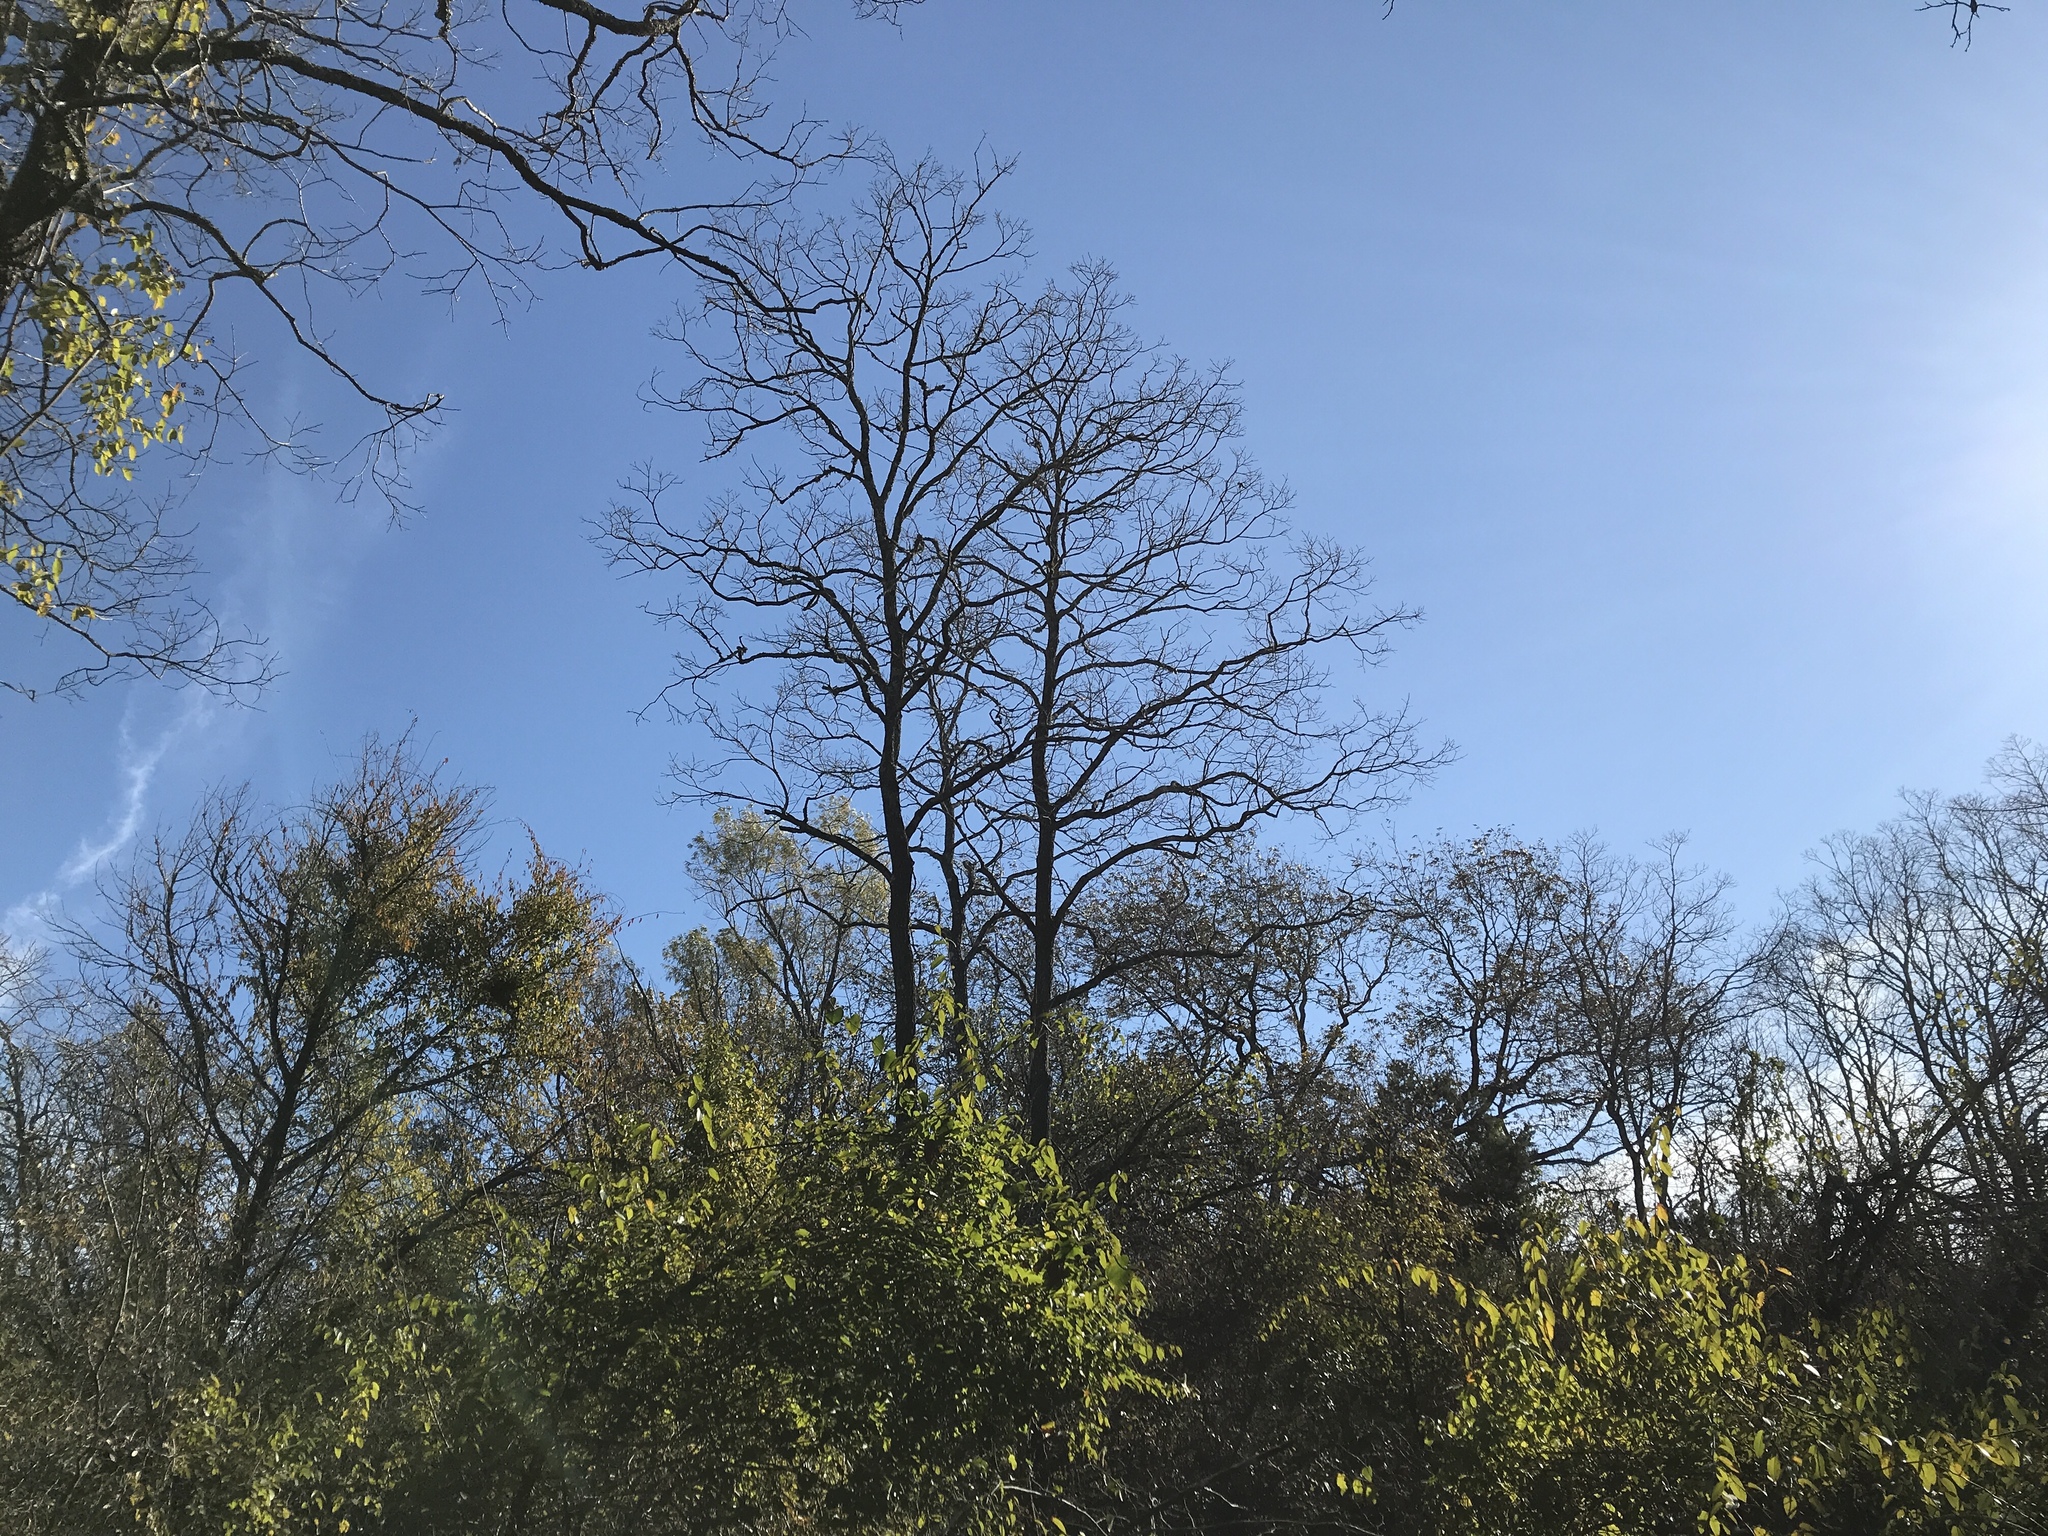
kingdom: Plantae
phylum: Tracheophyta
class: Magnoliopsida
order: Ericales
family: Ebenaceae
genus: Diospyros
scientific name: Diospyros virginiana
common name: Persimmon
